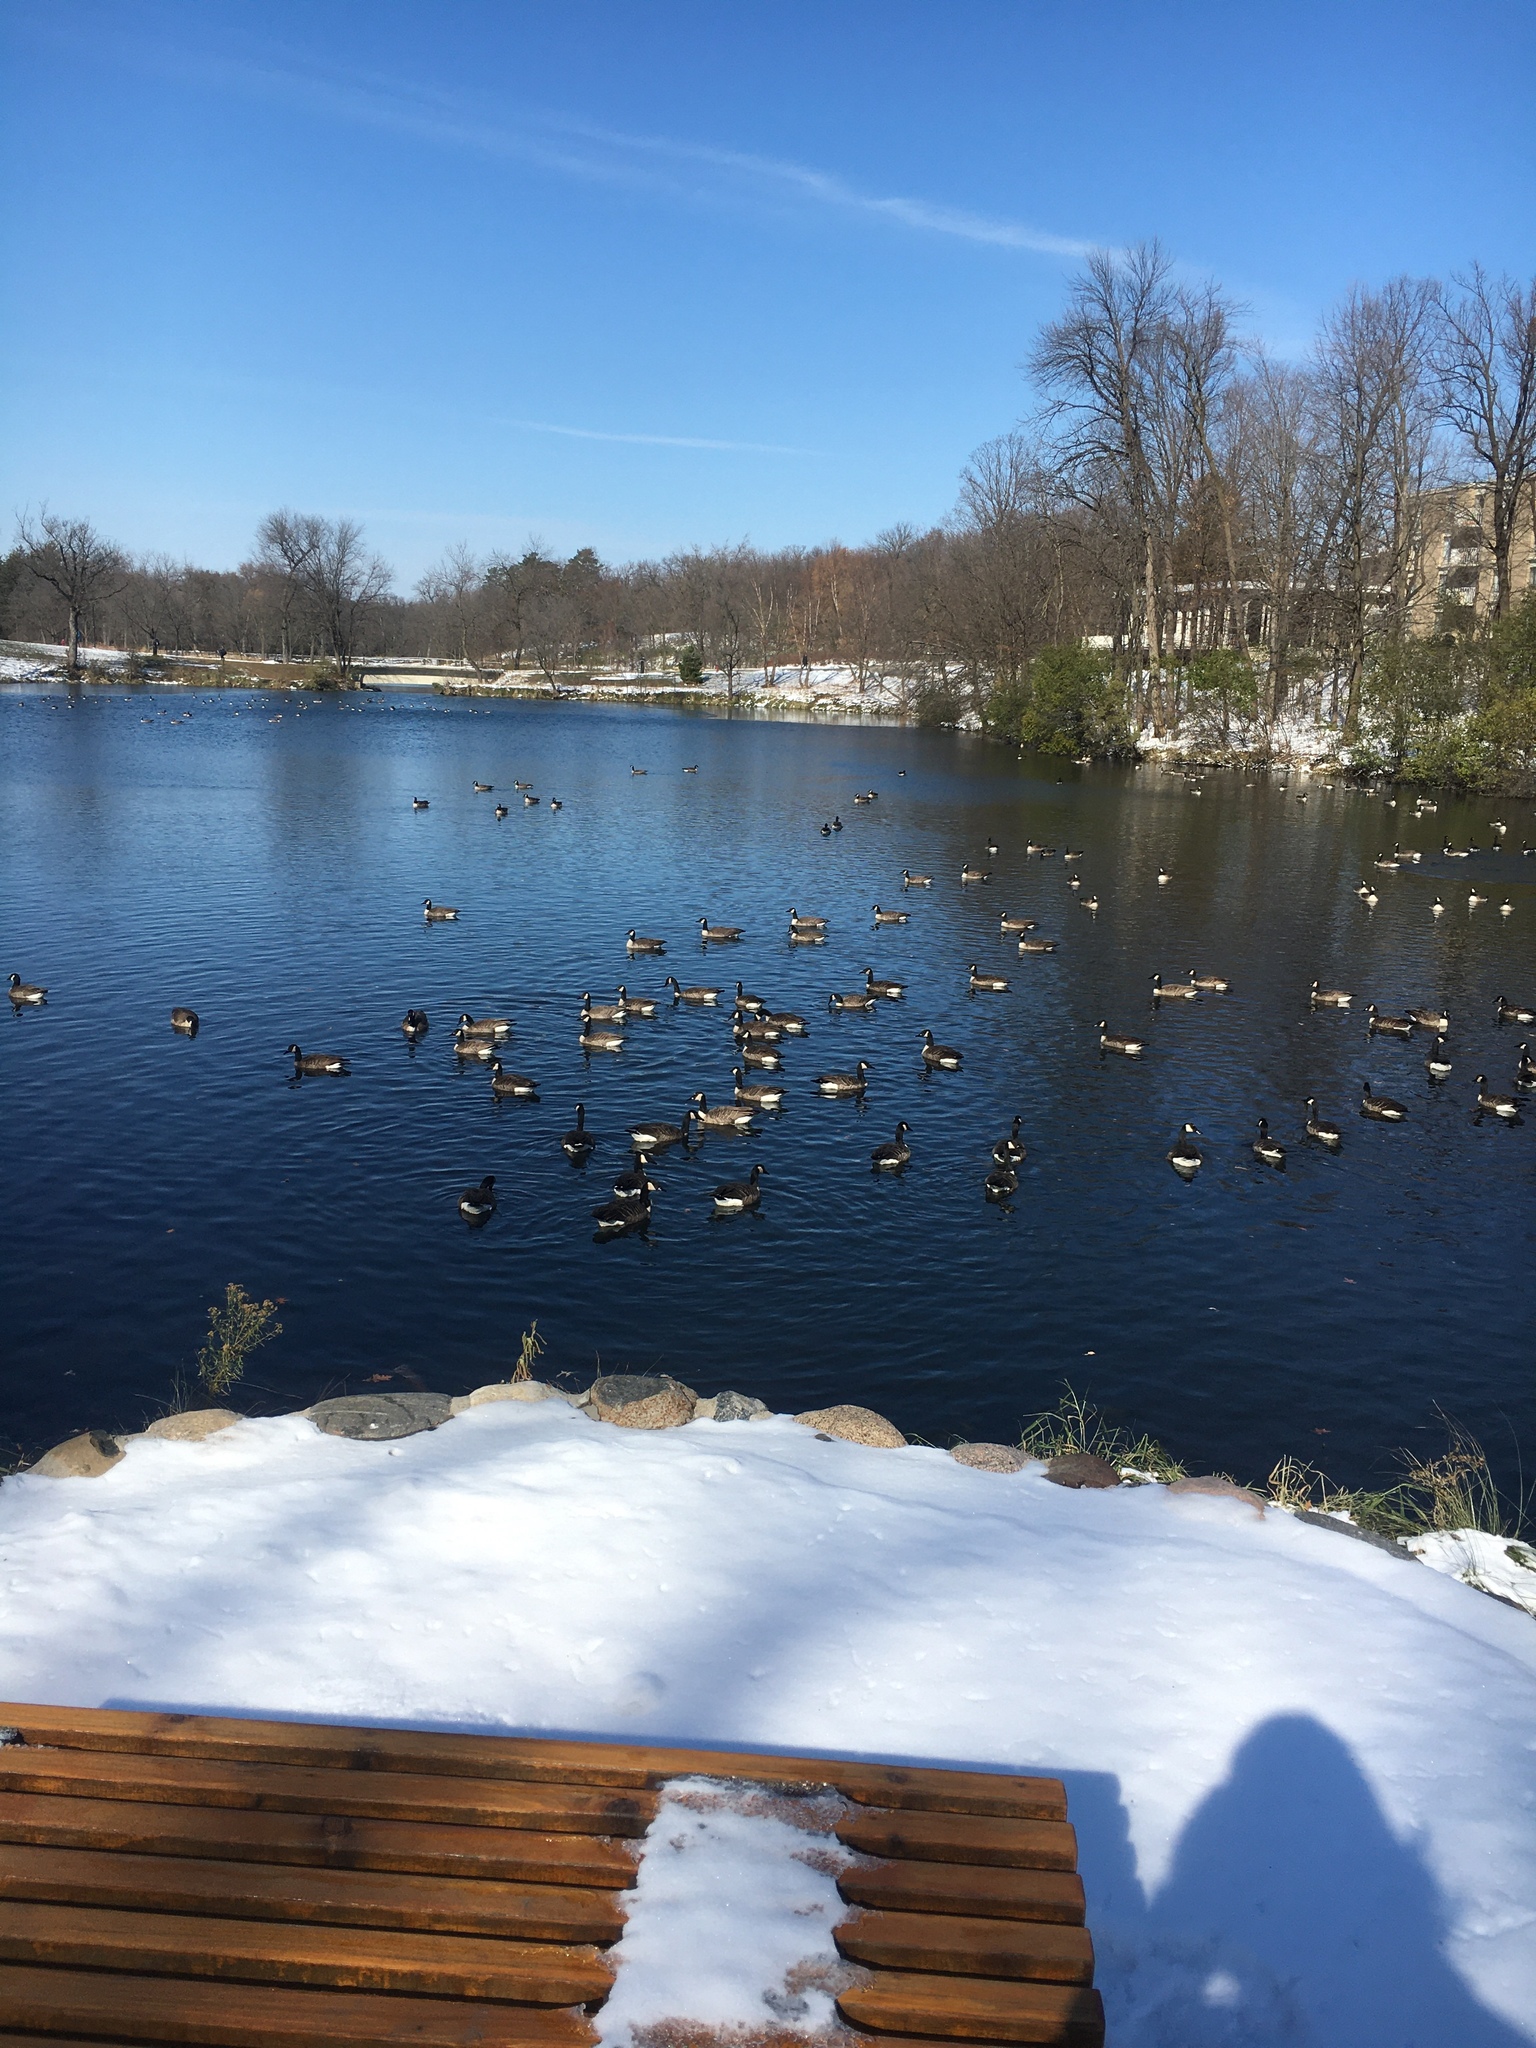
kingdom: Animalia
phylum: Chordata
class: Aves
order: Anseriformes
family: Anatidae
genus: Branta
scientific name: Branta canadensis
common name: Canada goose
